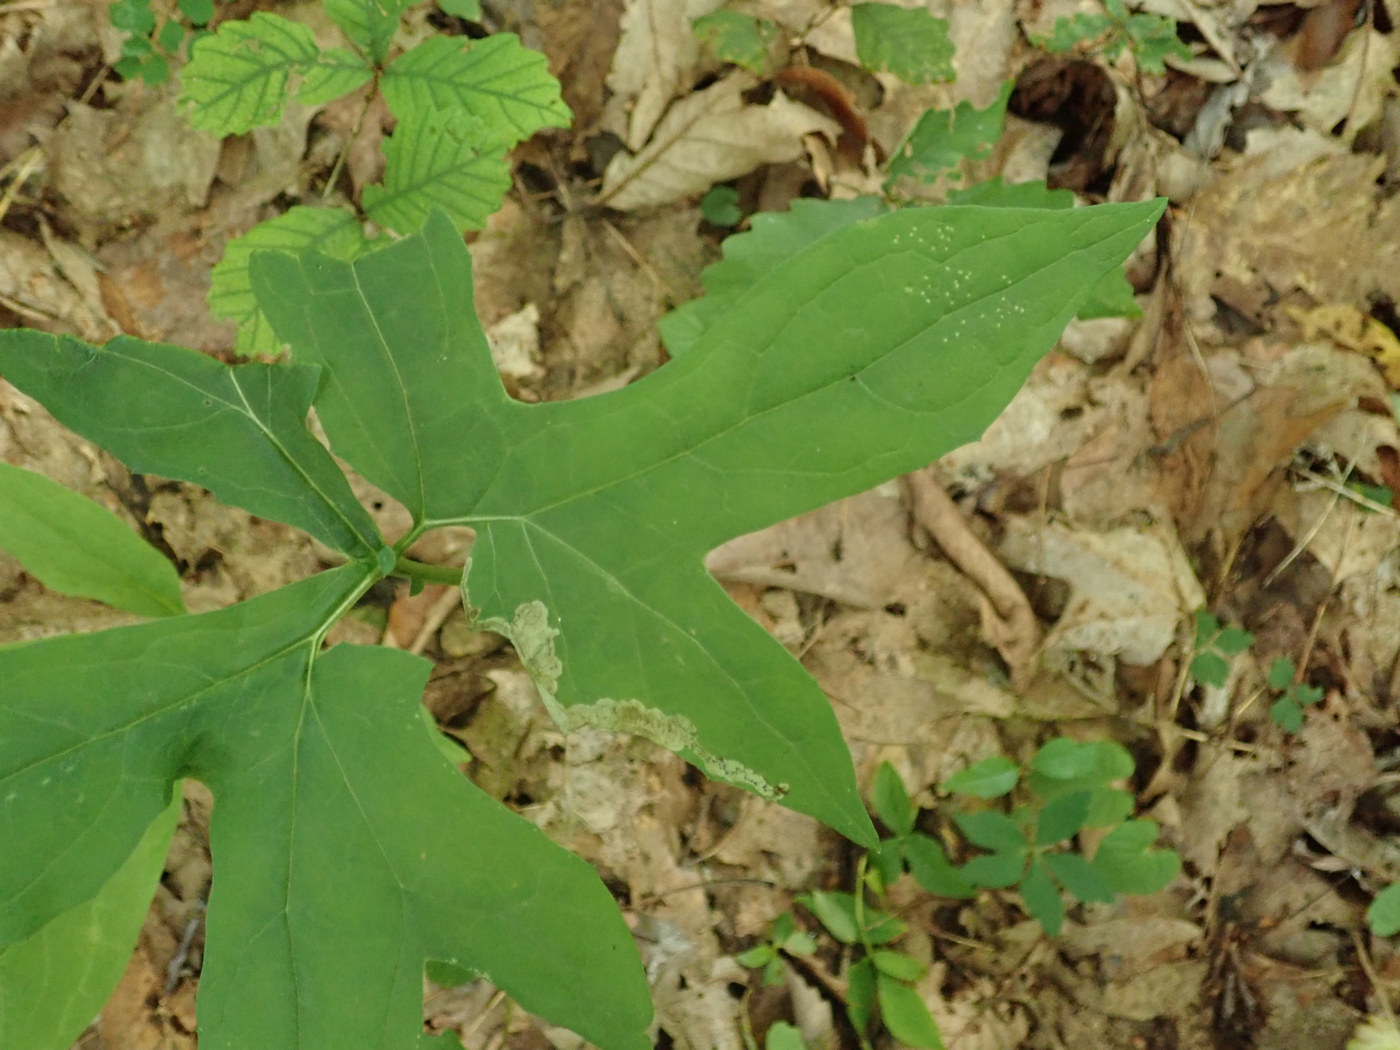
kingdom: Animalia
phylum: Arthropoda
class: Insecta
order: Diptera
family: Agromyzidae
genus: Liriomyza
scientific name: Liriomyza orilliensis
